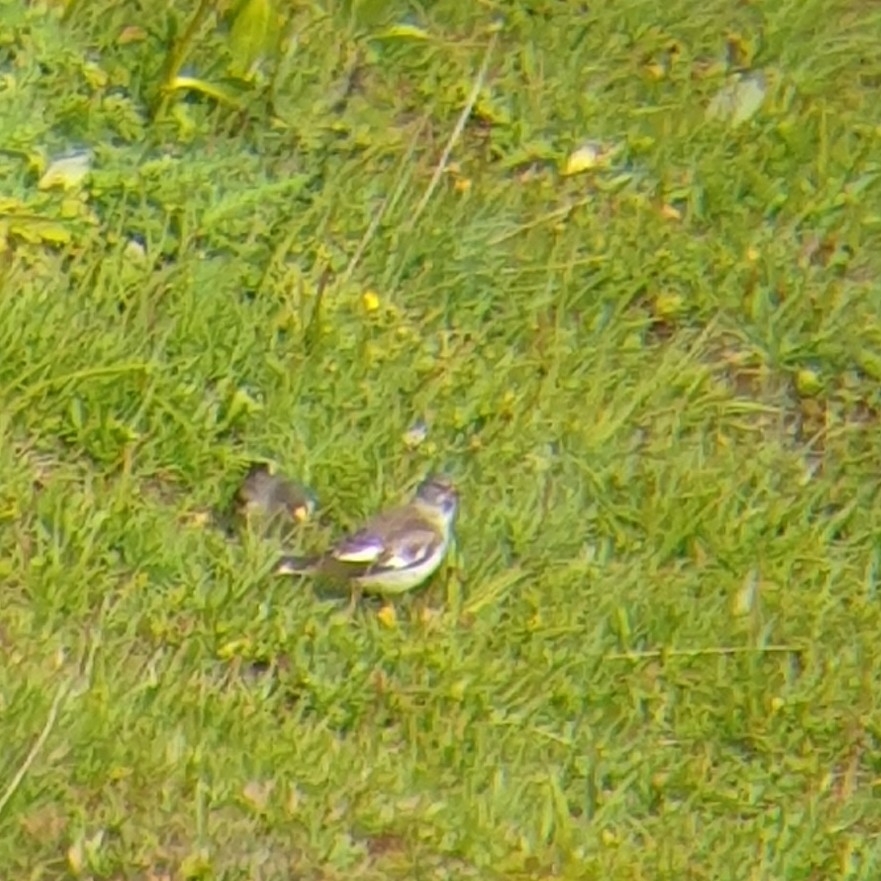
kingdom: Animalia
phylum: Chordata
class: Aves
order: Passeriformes
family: Passeridae
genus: Montifringilla
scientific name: Montifringilla nivalis
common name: White-winged snowfinch
